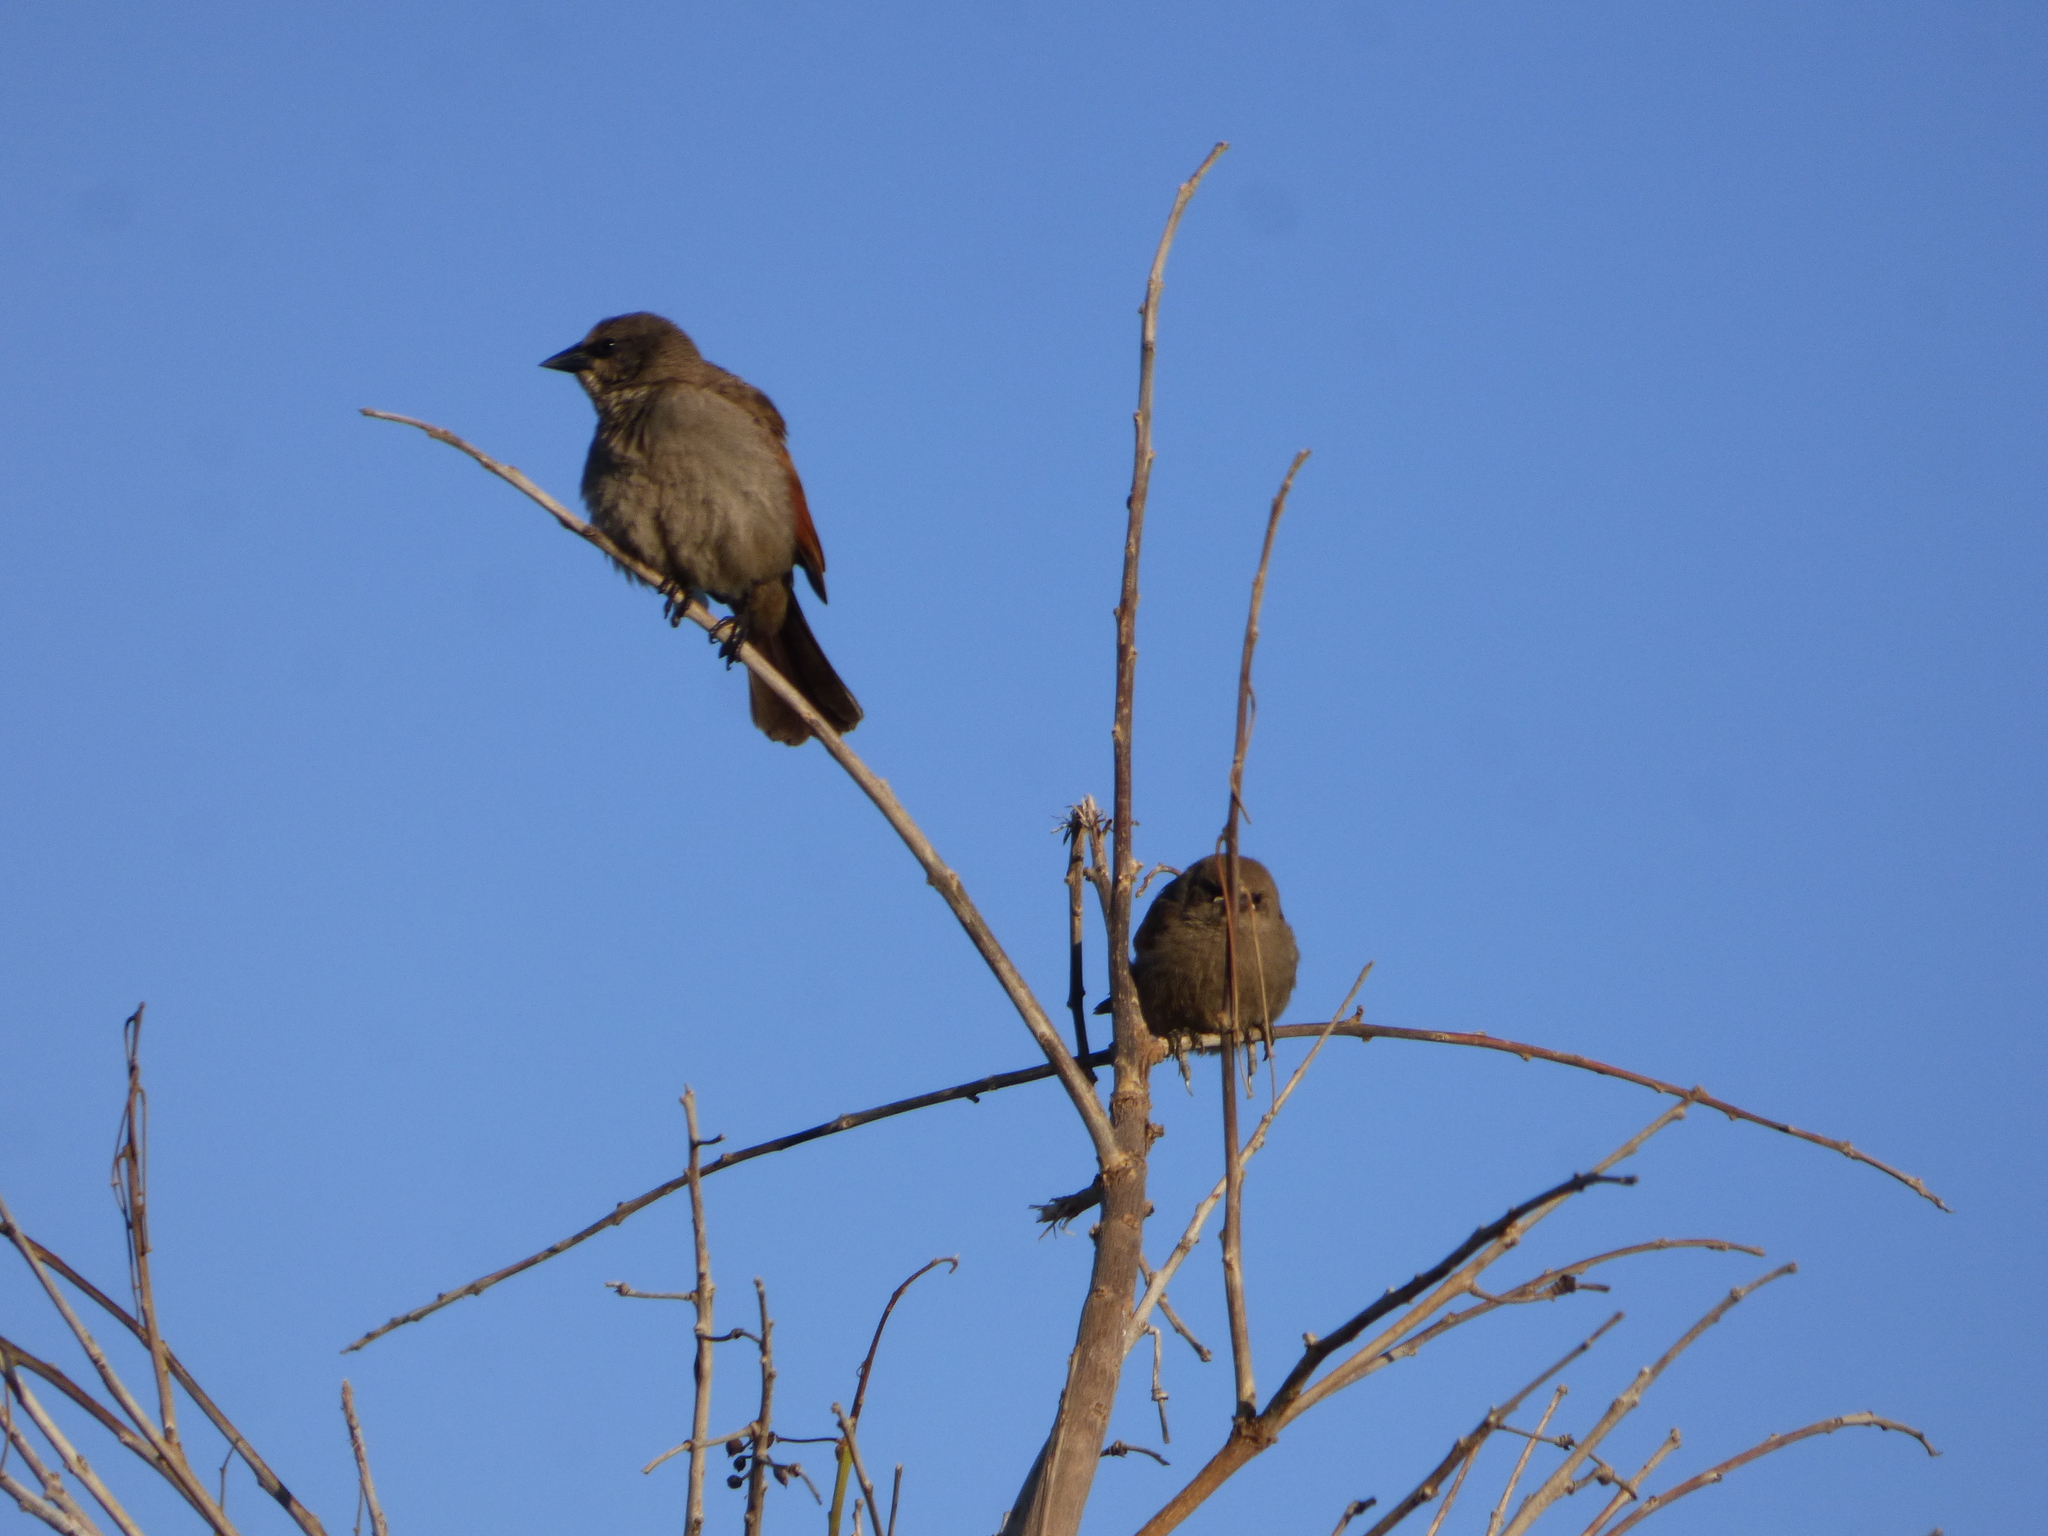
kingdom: Animalia
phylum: Chordata
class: Aves
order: Passeriformes
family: Icteridae
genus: Agelaioides
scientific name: Agelaioides badius
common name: Baywing
